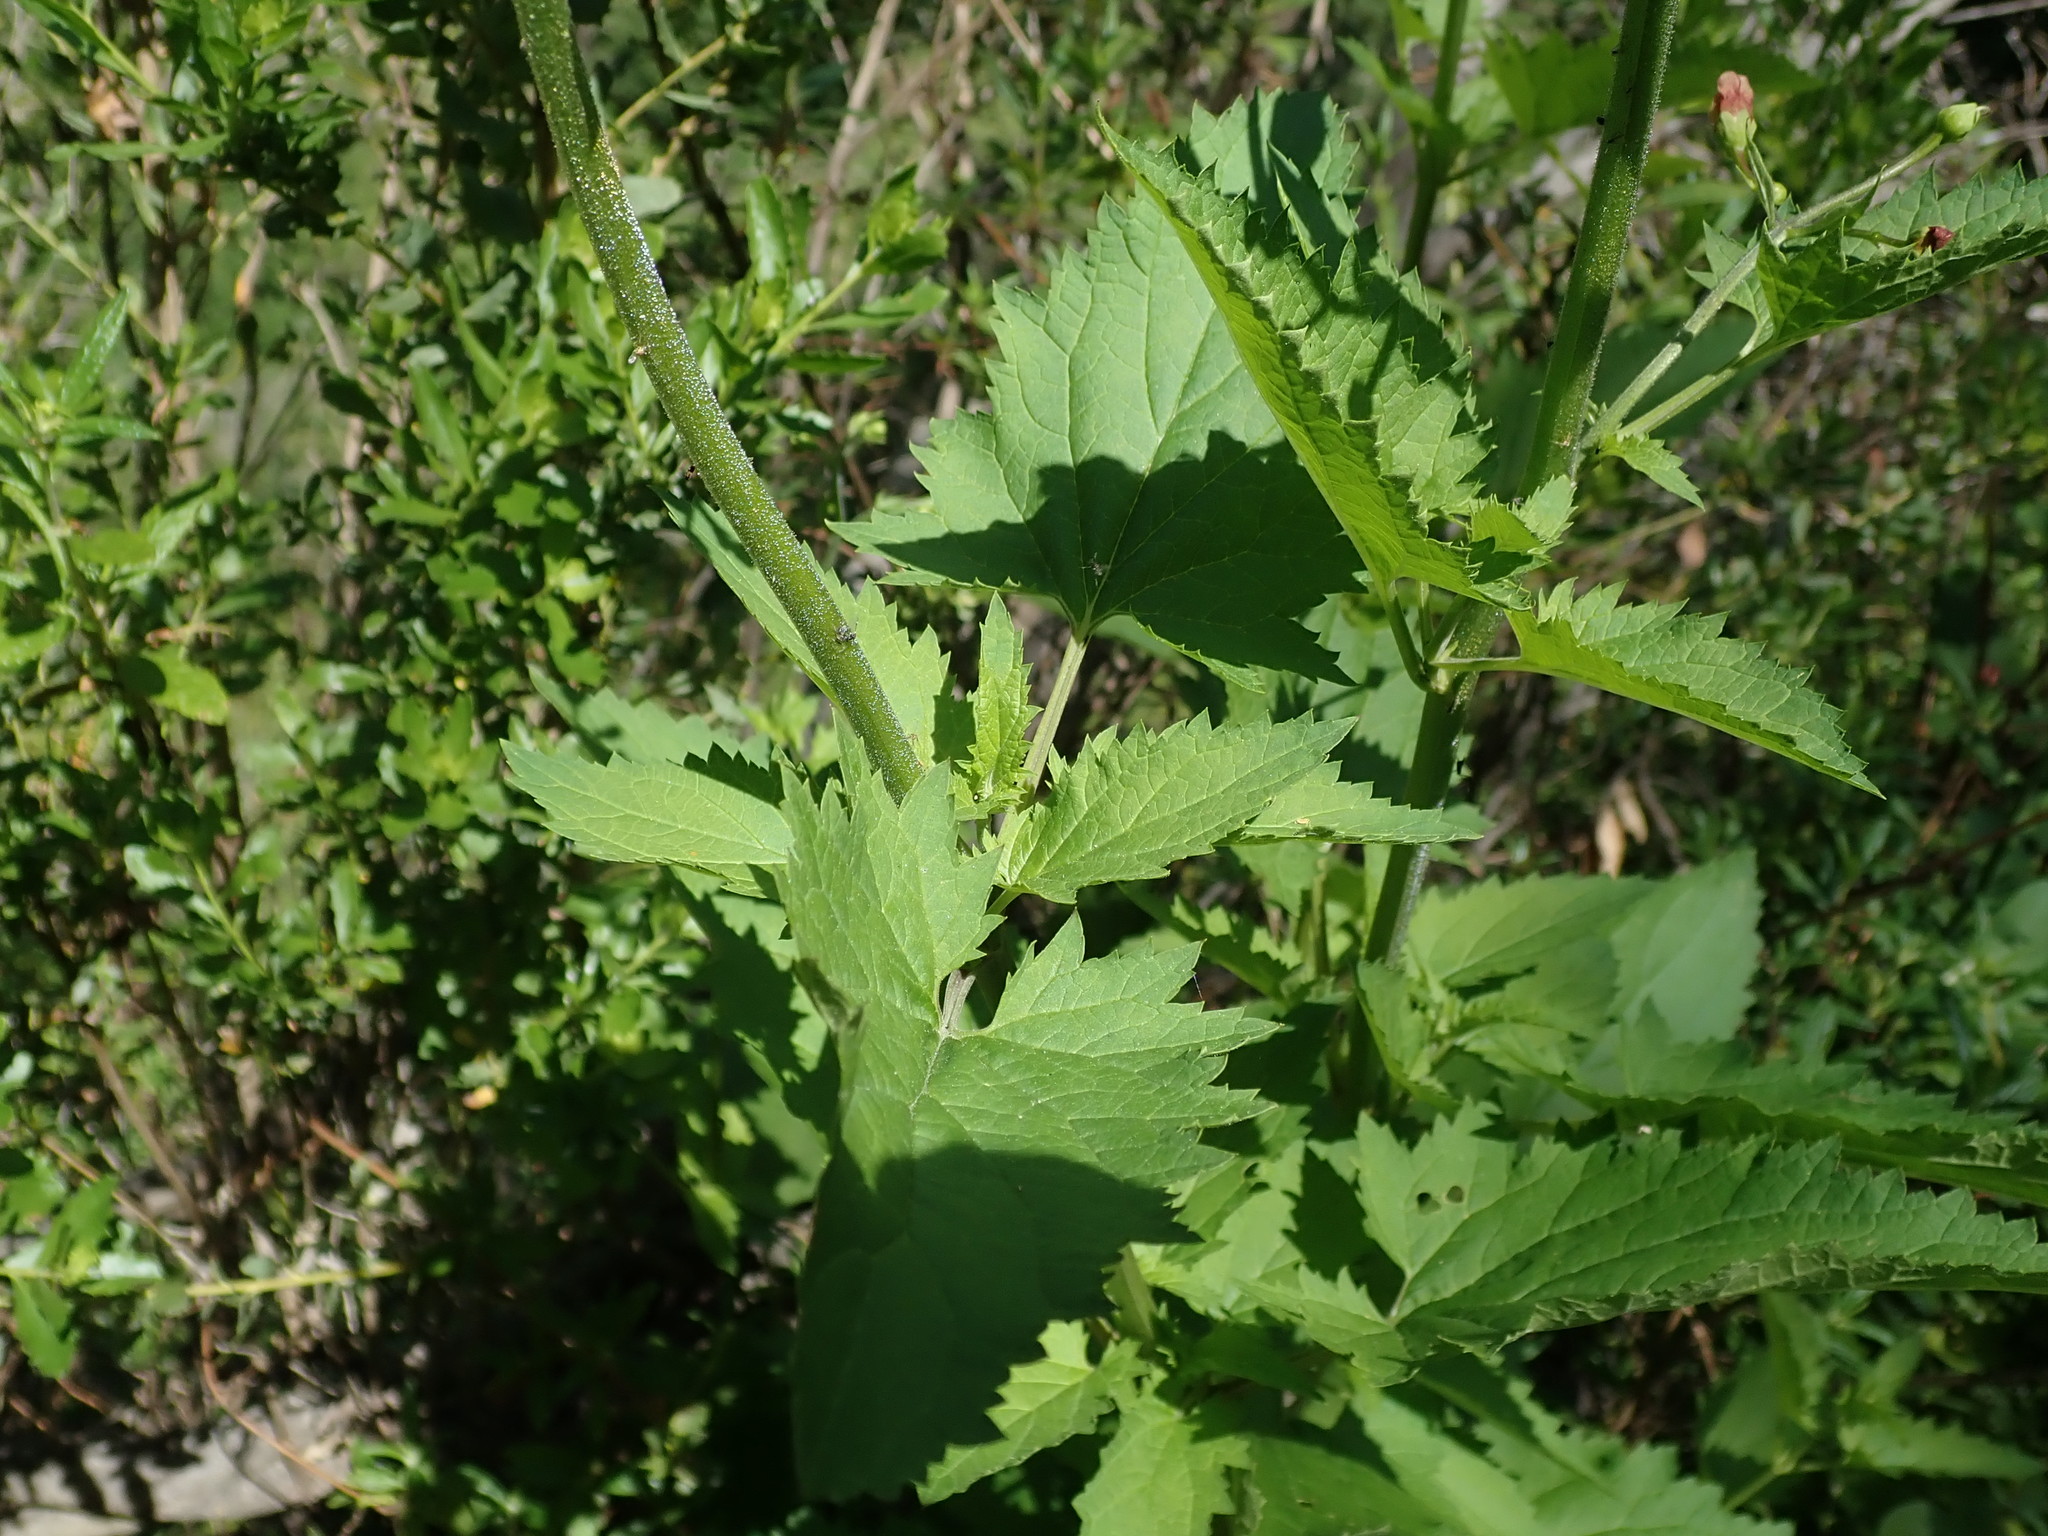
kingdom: Plantae
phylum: Tracheophyta
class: Magnoliopsida
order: Lamiales
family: Scrophulariaceae
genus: Scrophularia
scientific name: Scrophularia californica
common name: California figwort
